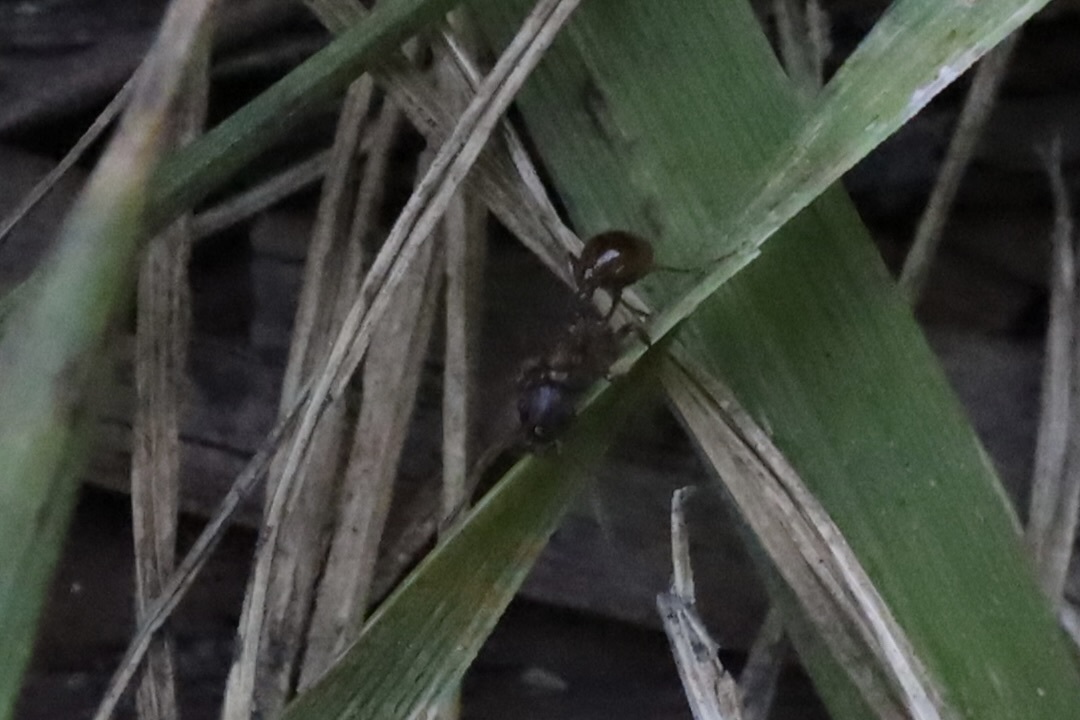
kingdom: Animalia
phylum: Arthropoda
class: Insecta
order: Hymenoptera
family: Formicidae
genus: Myrmica
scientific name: Myrmica
